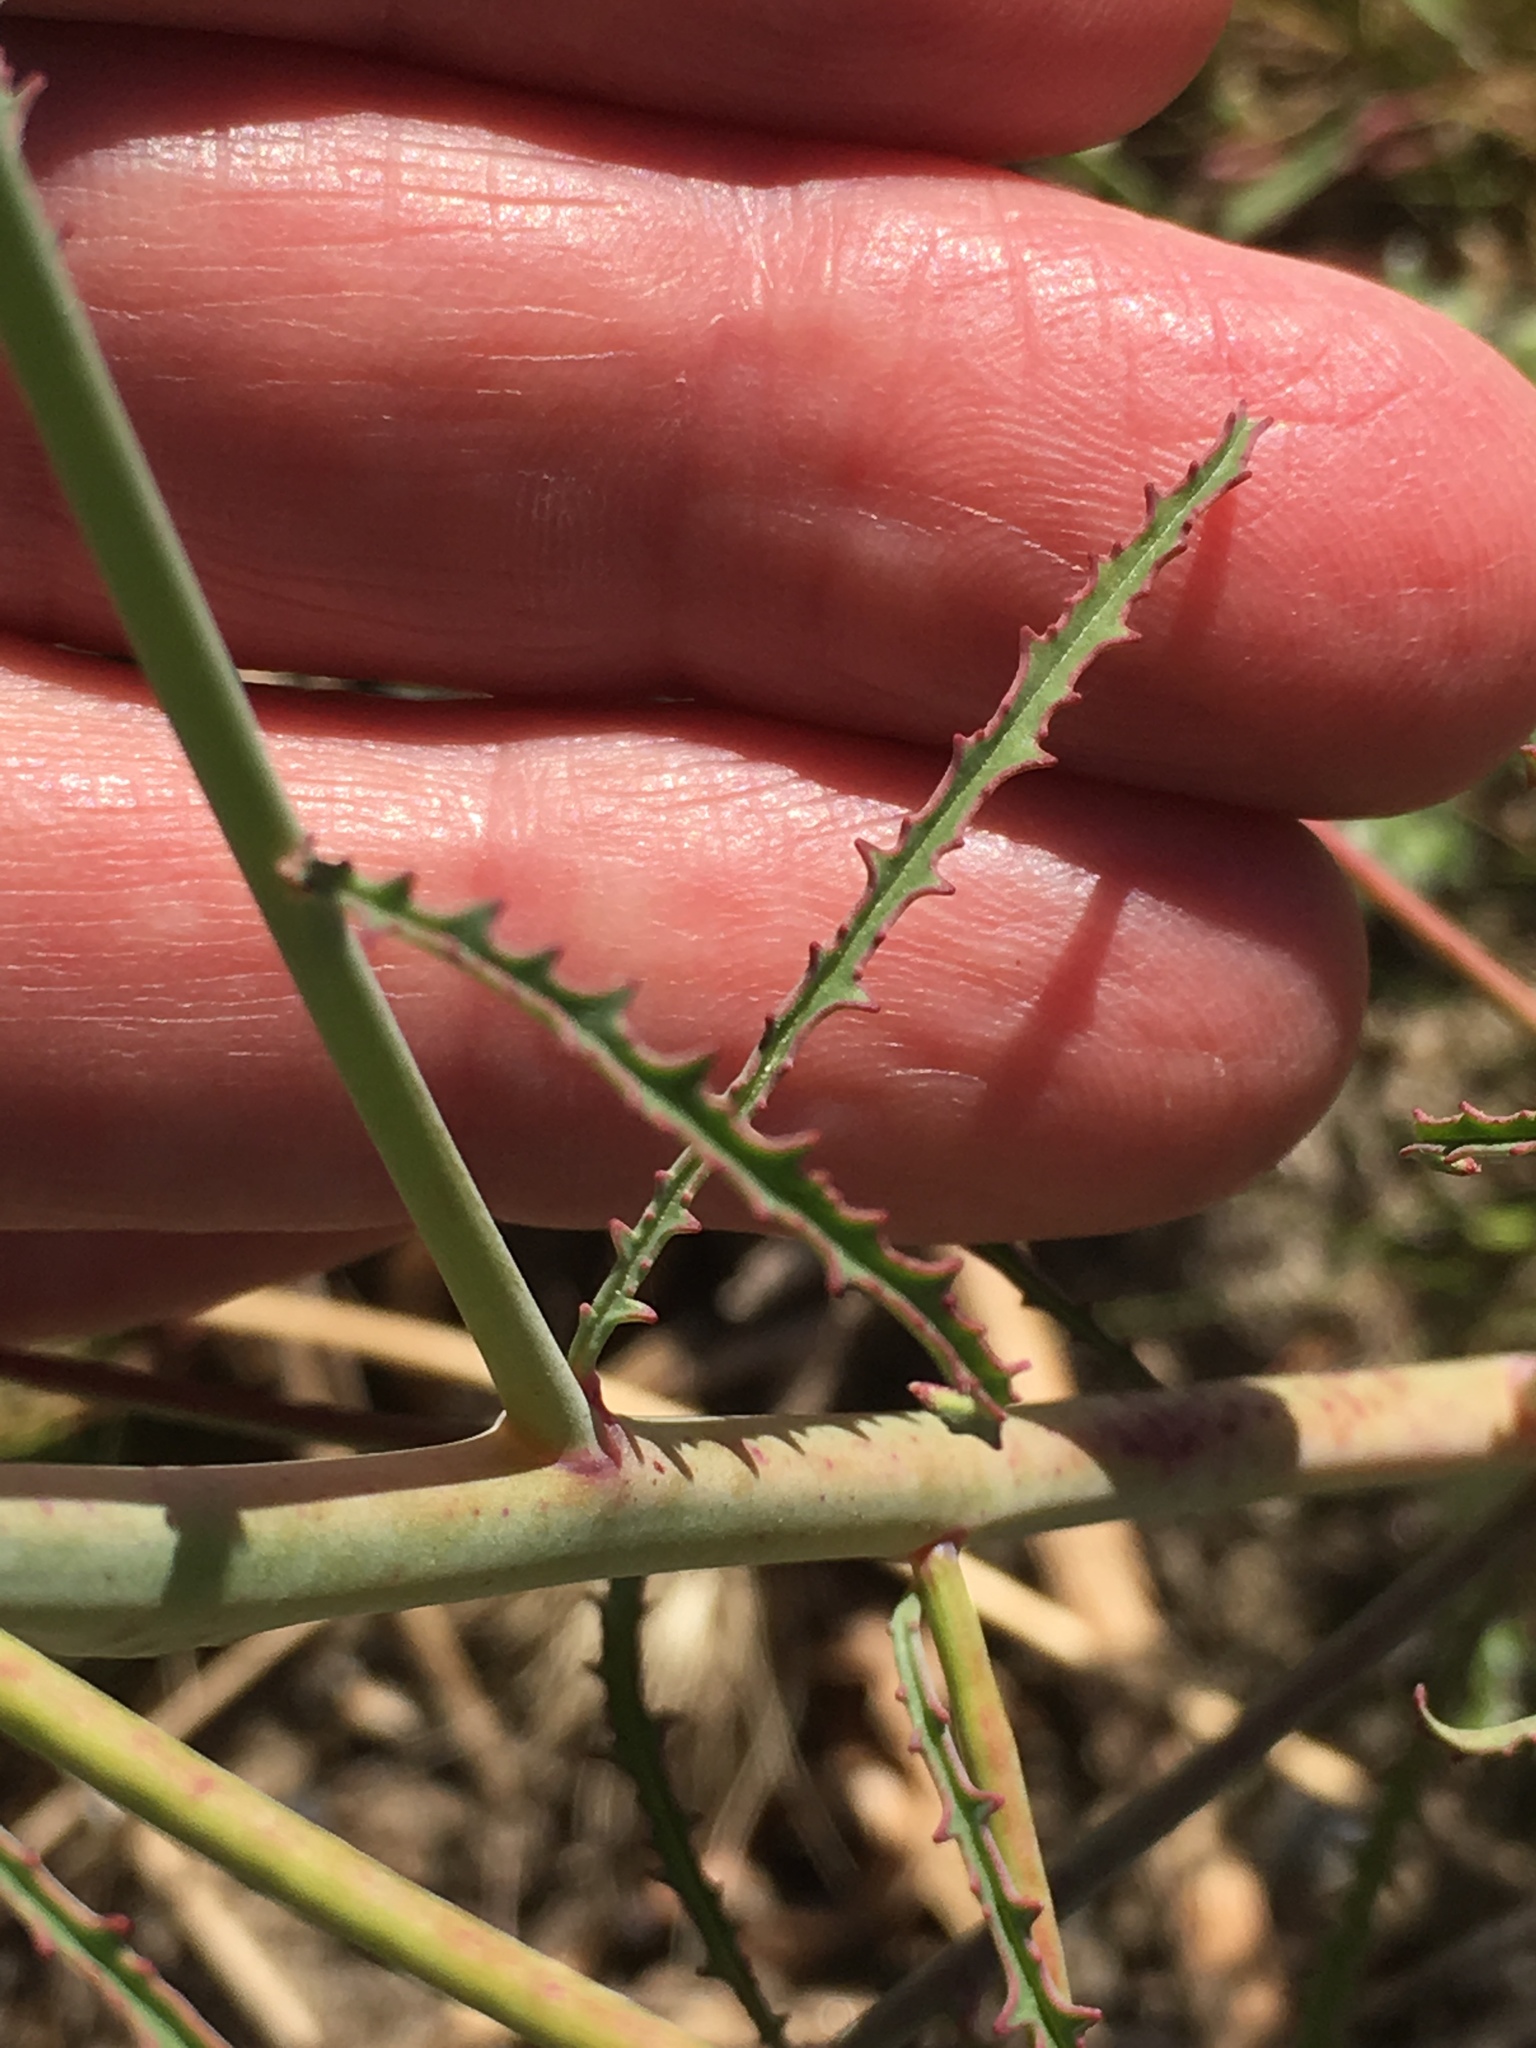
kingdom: Plantae
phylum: Tracheophyta
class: Magnoliopsida
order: Myrtales
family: Onagraceae
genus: Eulobus
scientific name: Eulobus californicus
